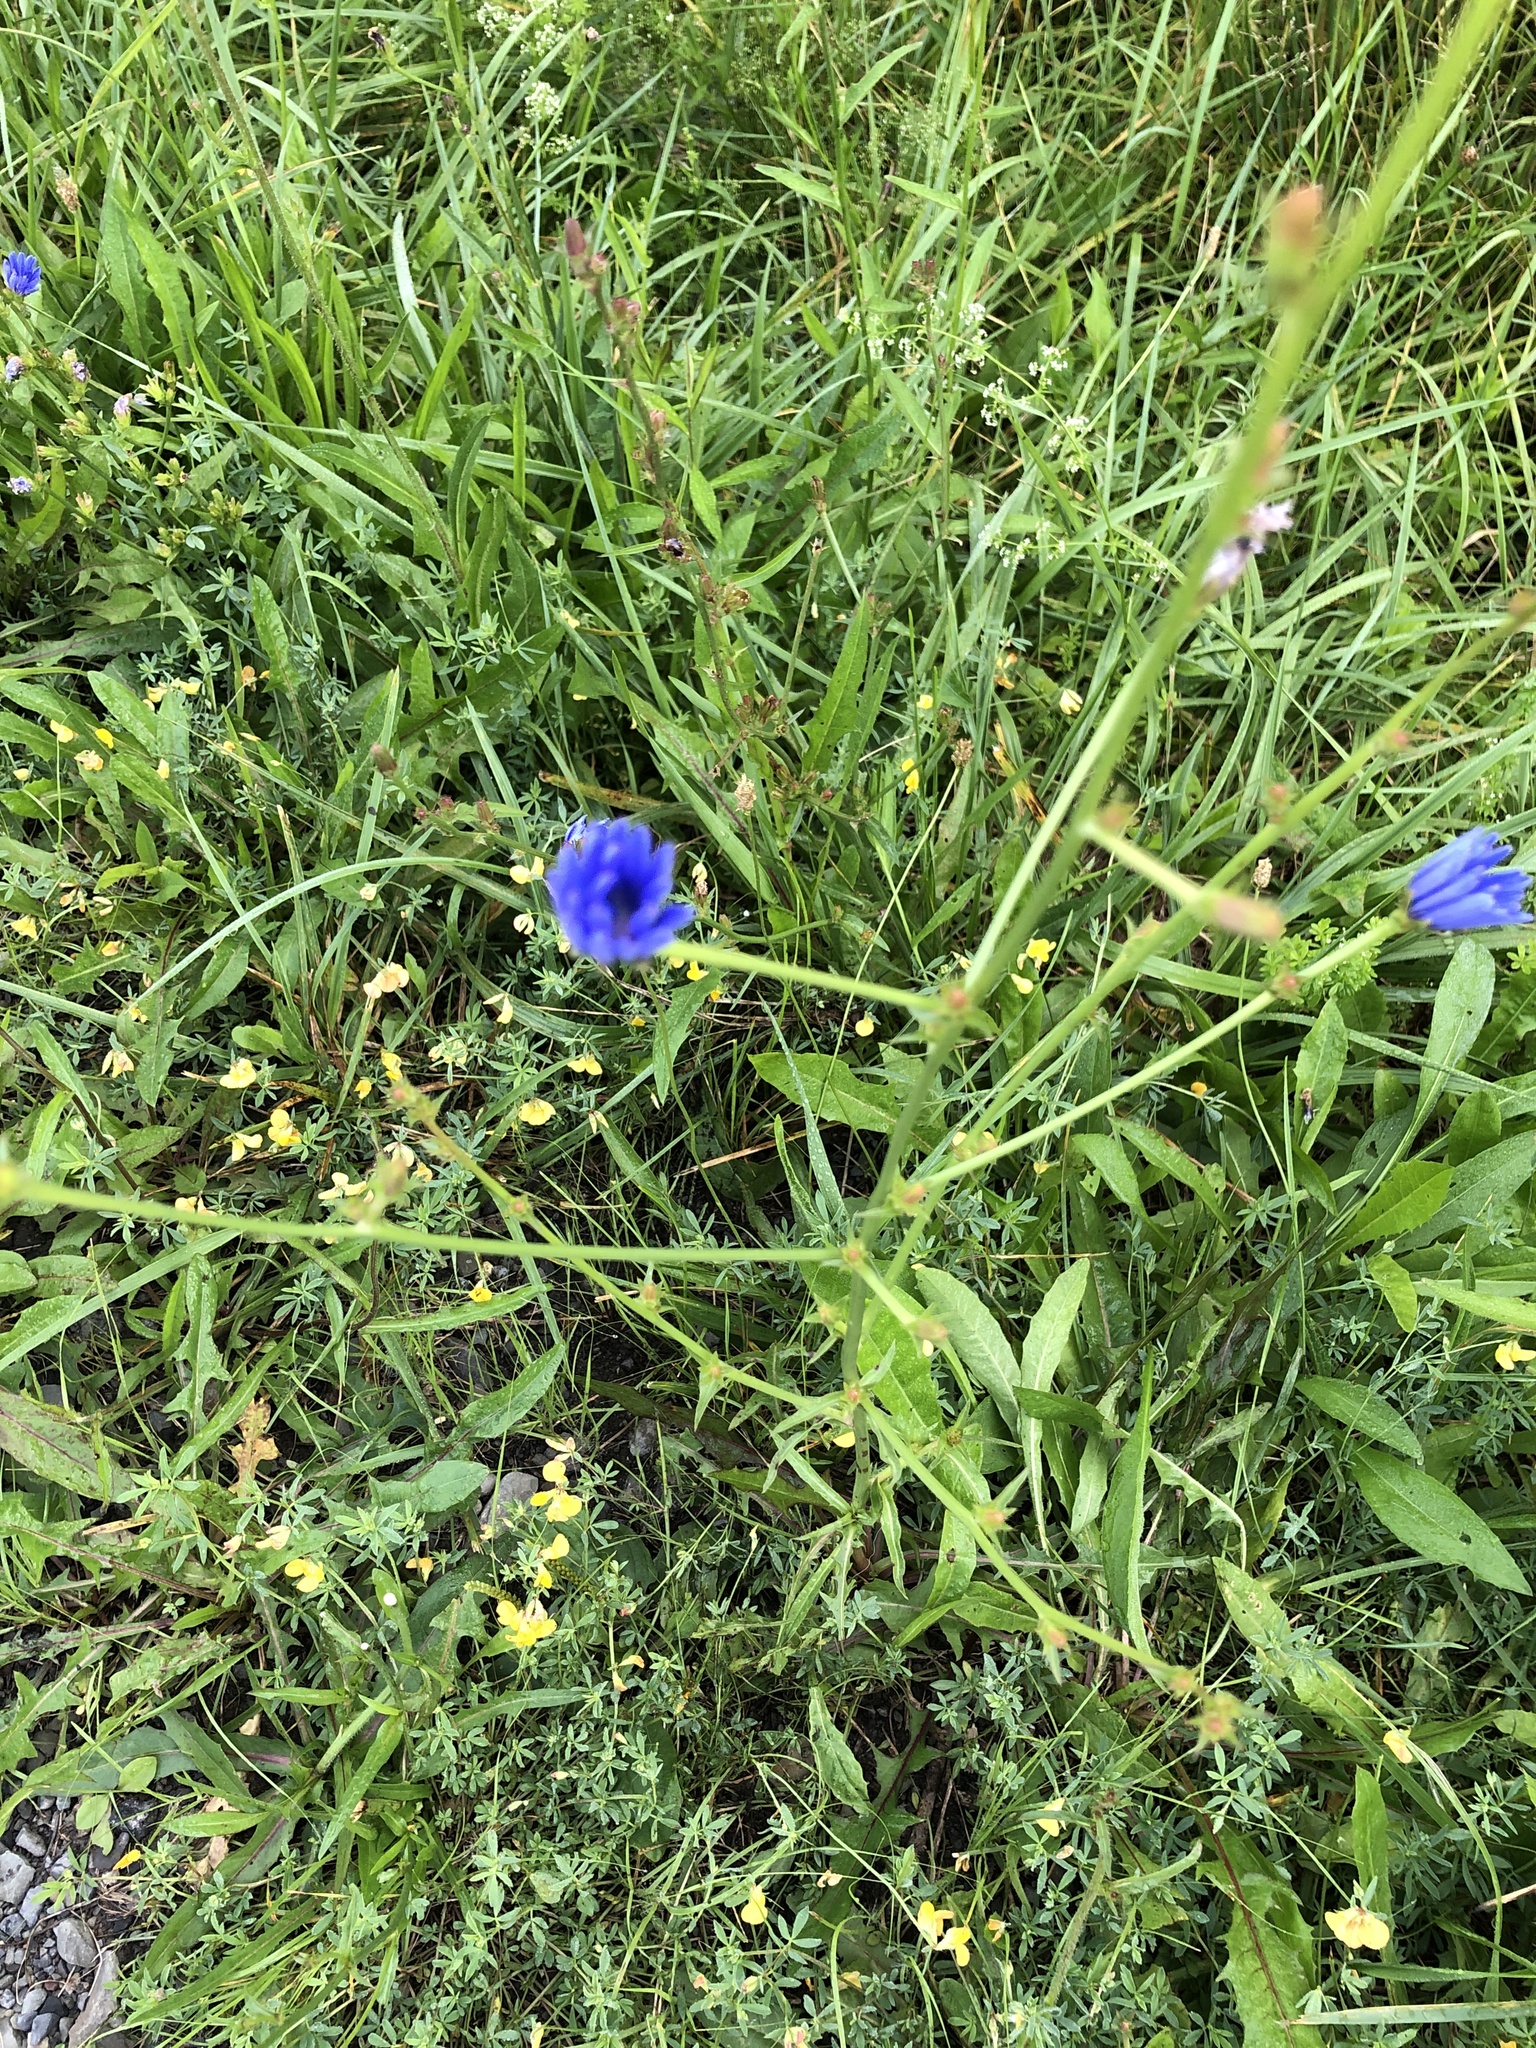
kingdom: Plantae
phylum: Tracheophyta
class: Magnoliopsida
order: Asterales
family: Asteraceae
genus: Cichorium
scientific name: Cichorium intybus
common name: Chicory
